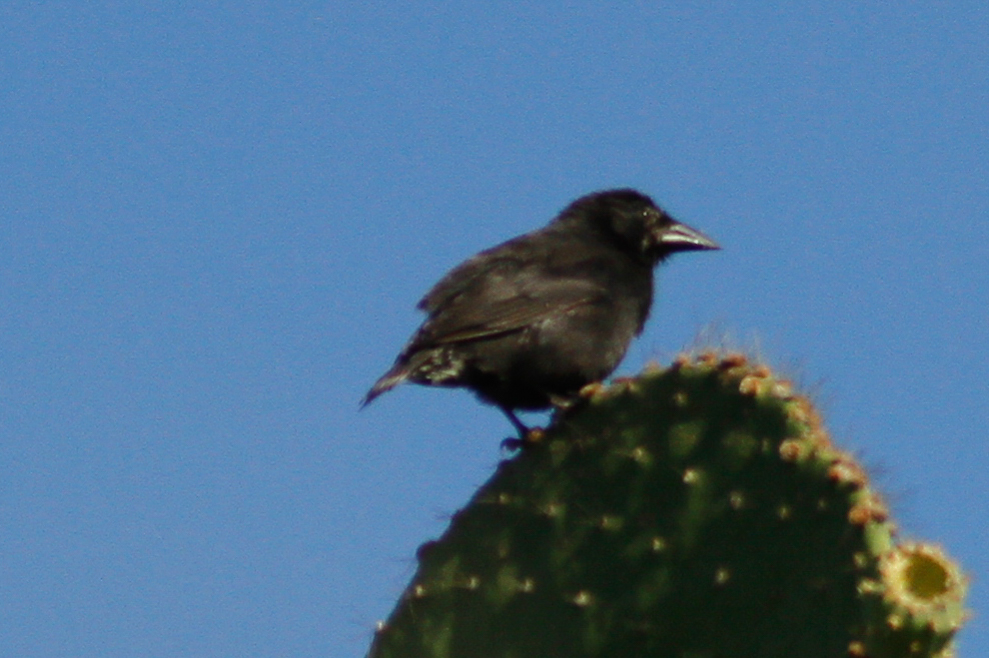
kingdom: Animalia
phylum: Chordata
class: Aves
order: Passeriformes
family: Thraupidae
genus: Geospiza
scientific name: Geospiza scandens
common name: Common cactus-finch
